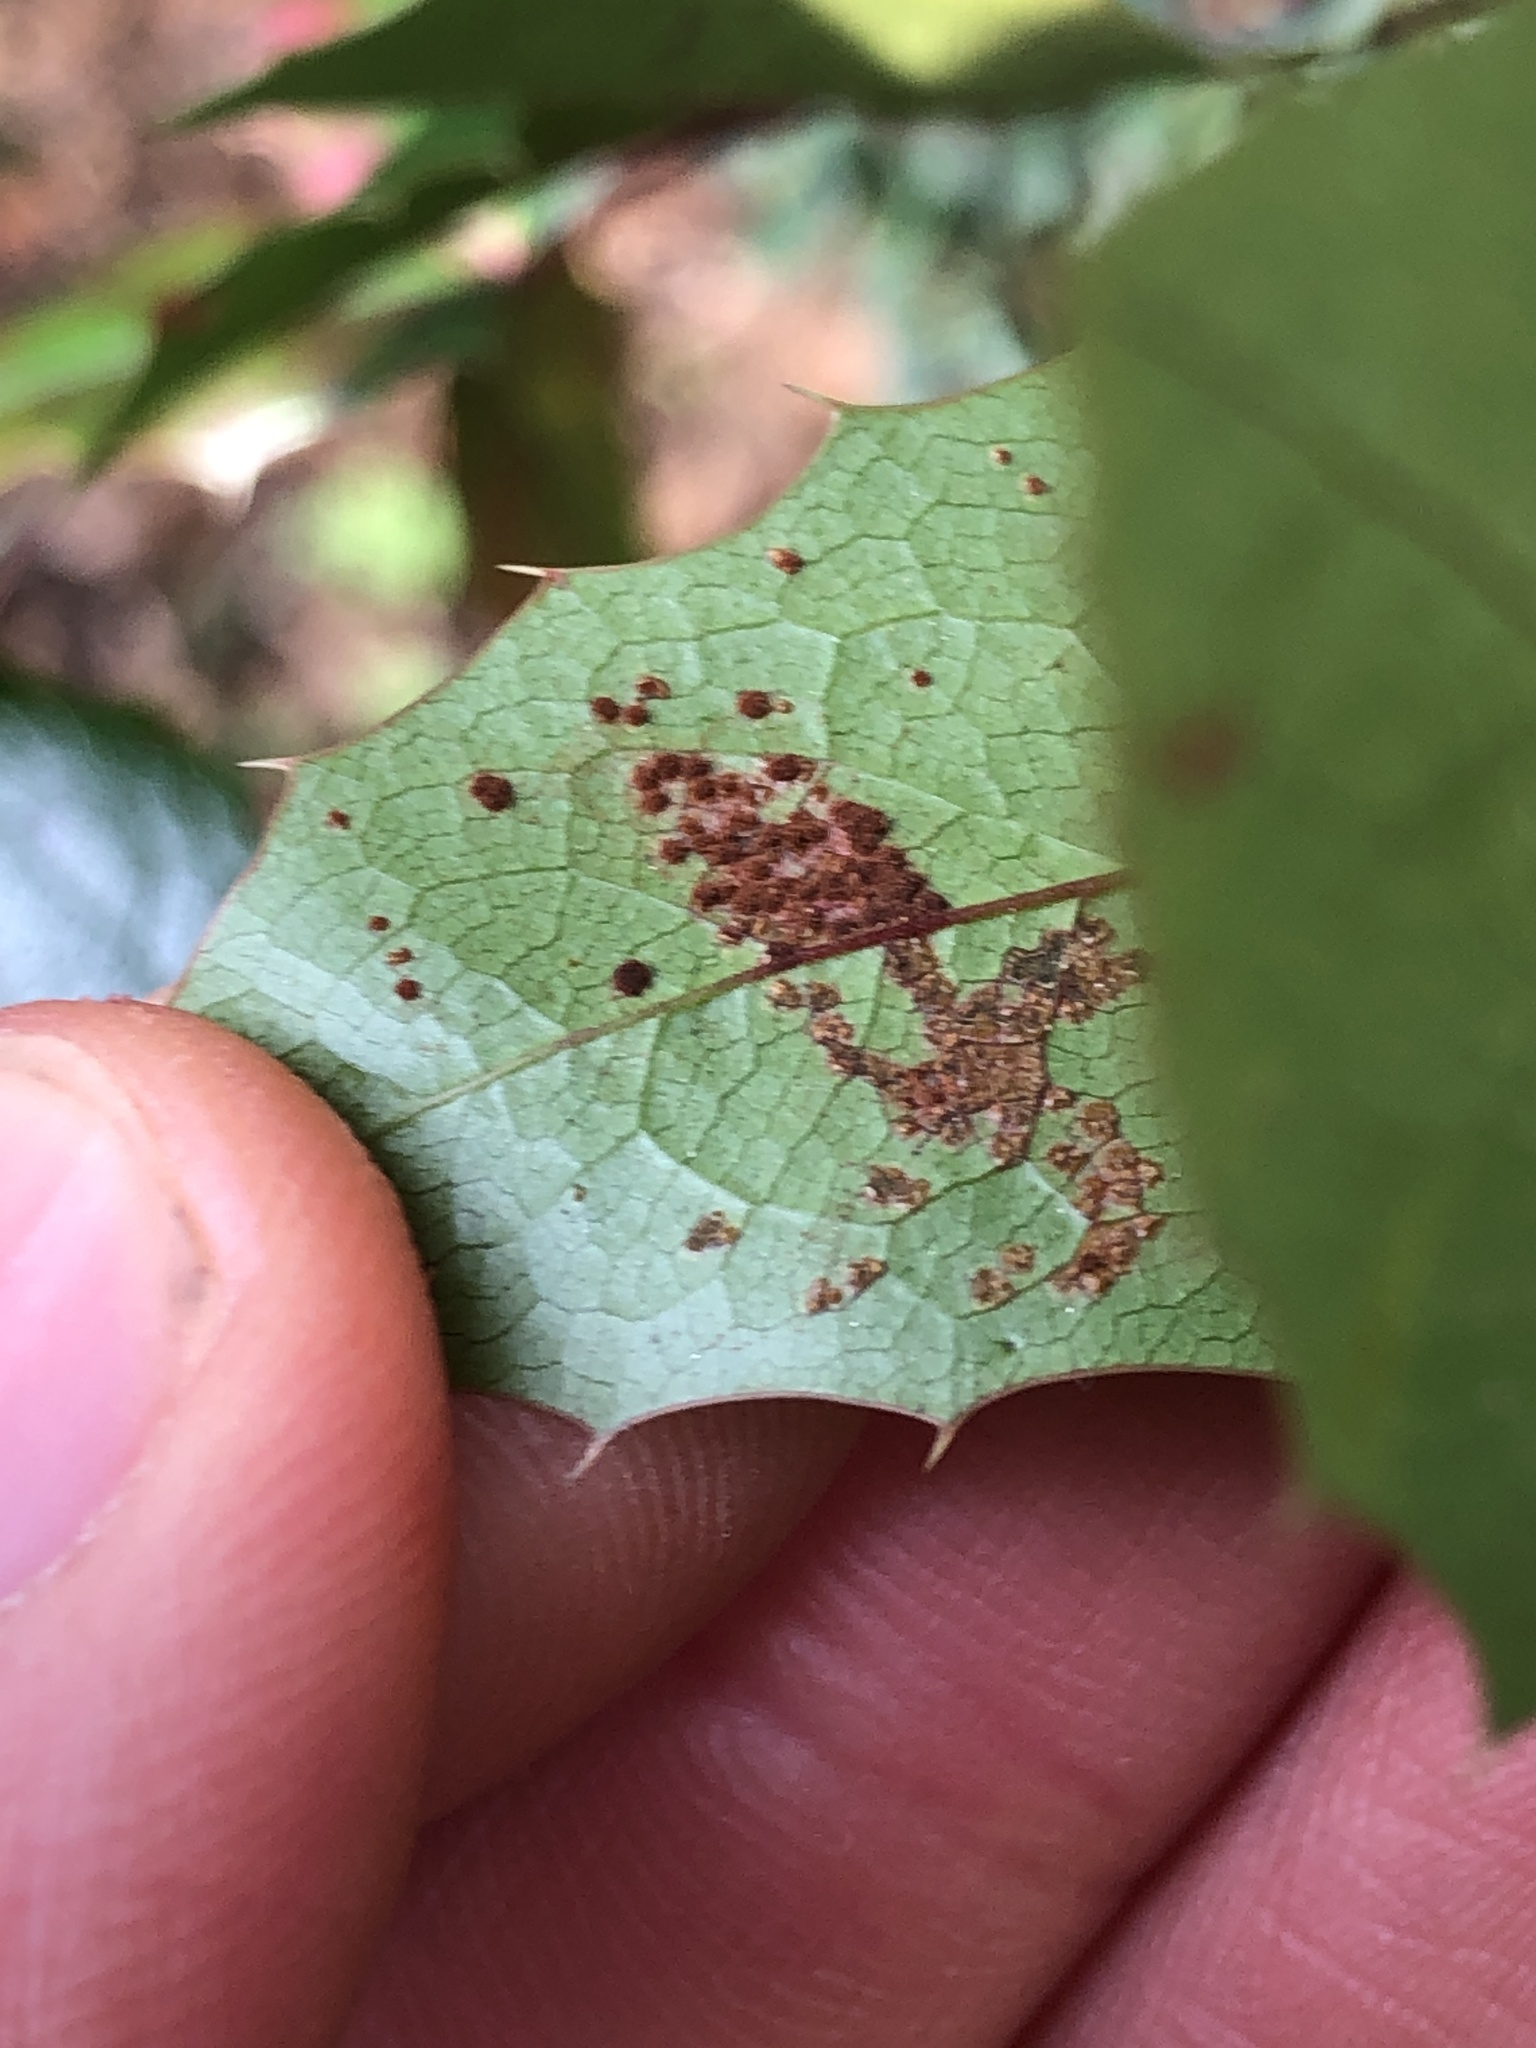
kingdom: Fungi
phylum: Basidiomycota
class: Pucciniomycetes
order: Pucciniales
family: Pucciniaceae
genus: Cumminsiella
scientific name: Cumminsiella mirabilissima
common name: Mahonia rust
